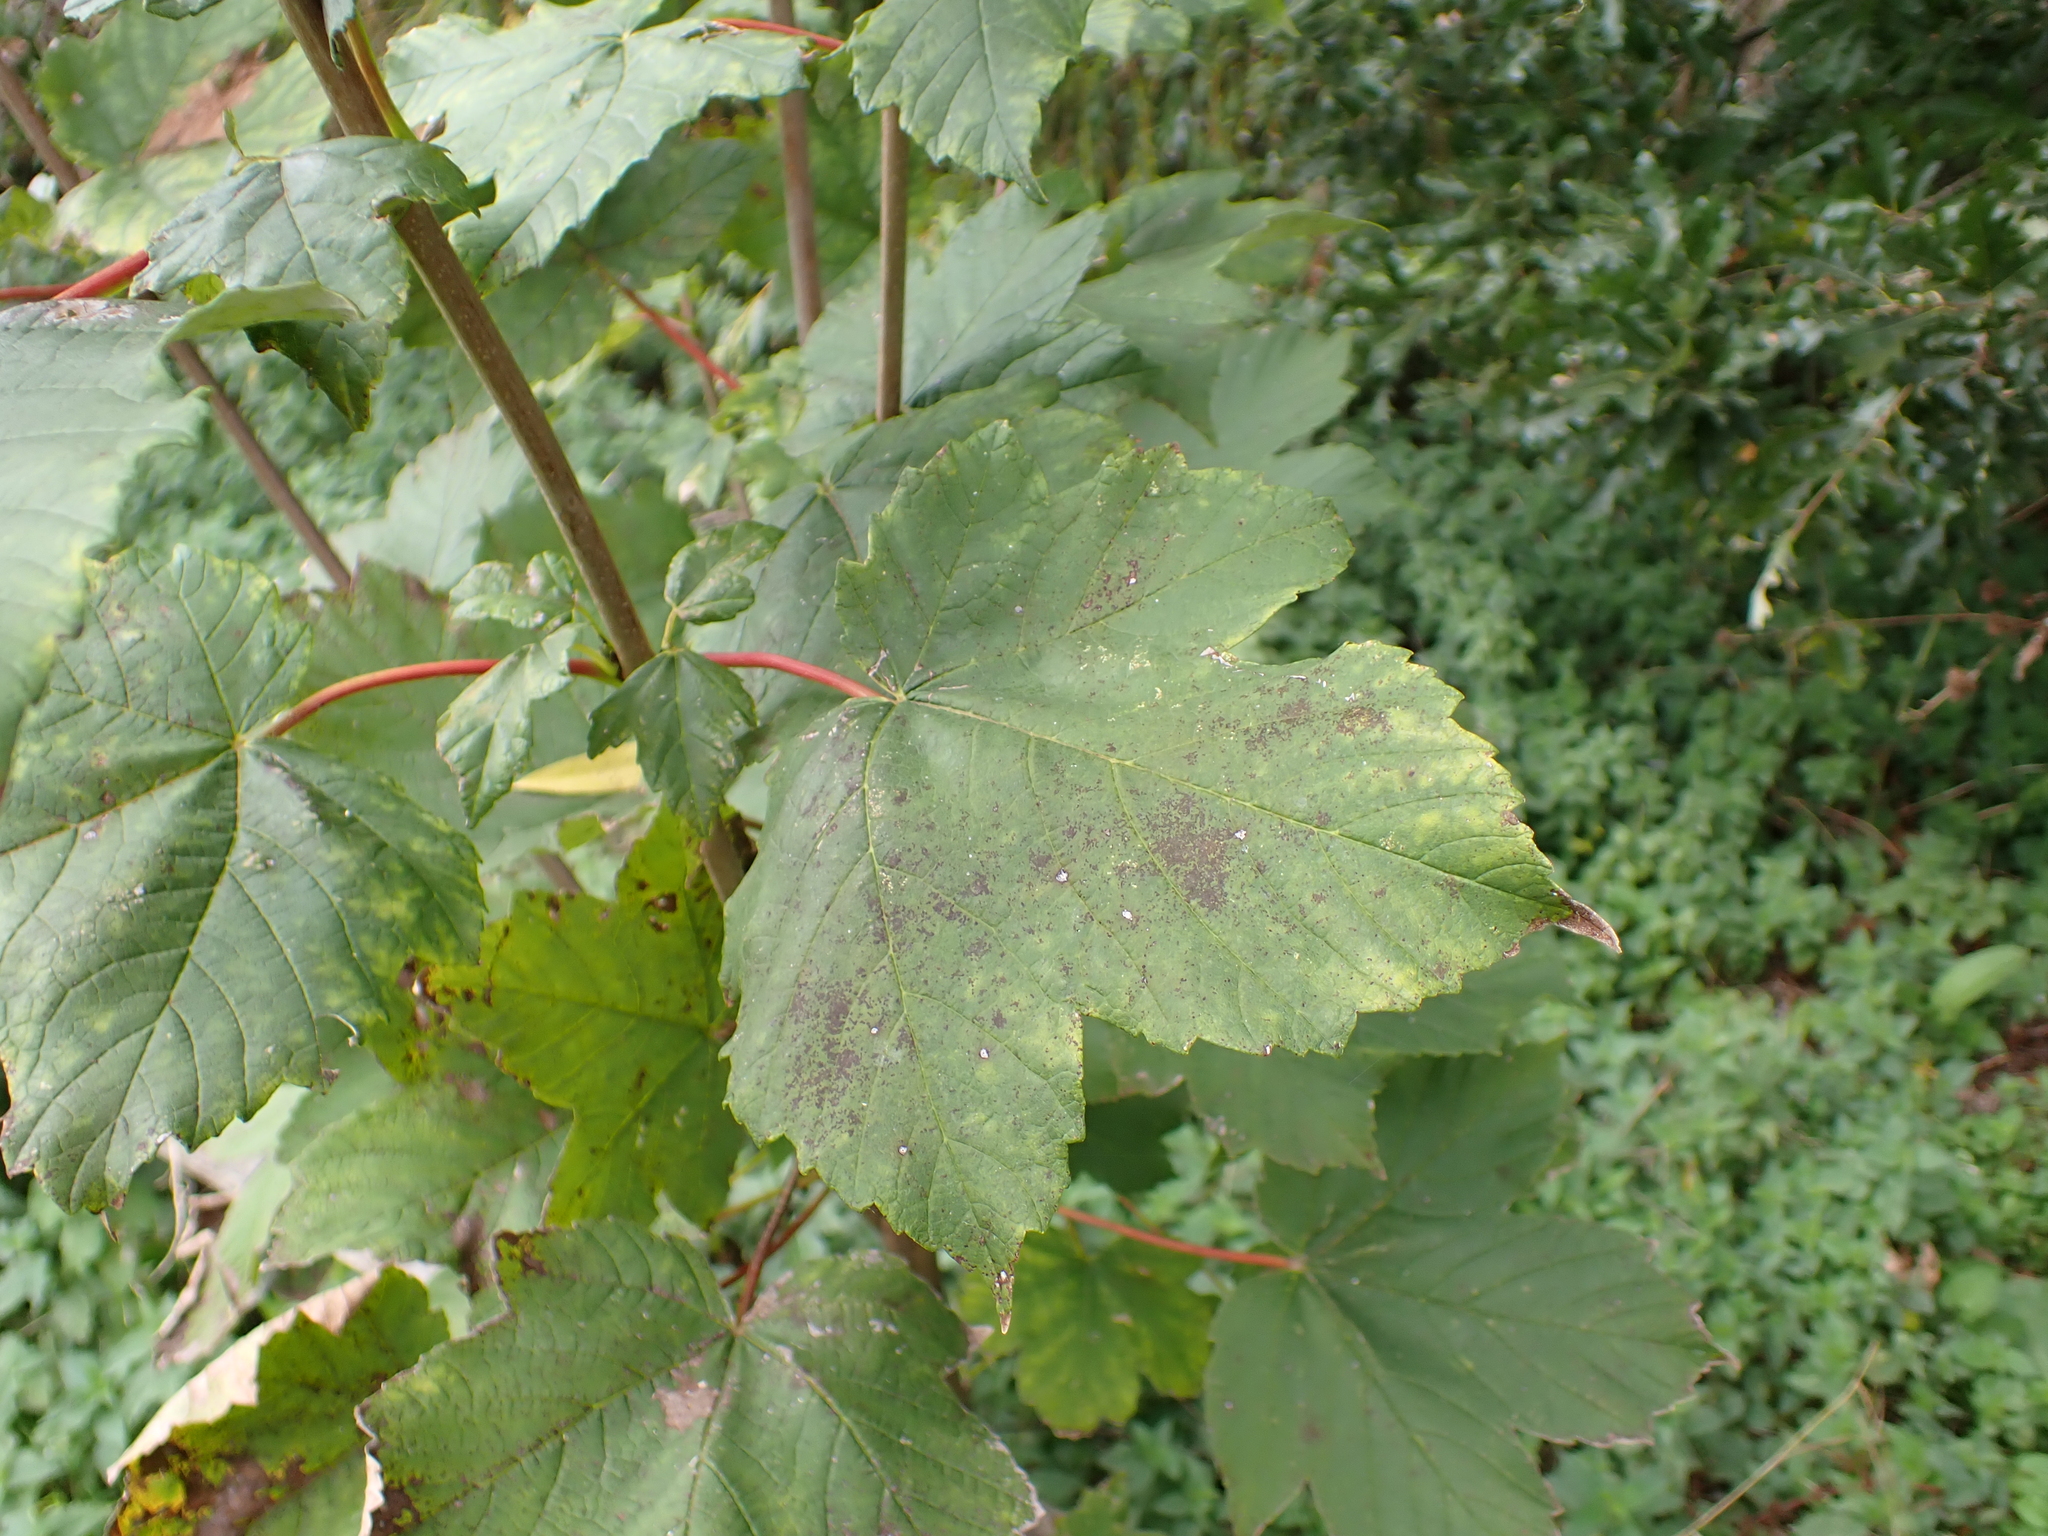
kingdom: Plantae
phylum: Tracheophyta
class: Magnoliopsida
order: Sapindales
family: Sapindaceae
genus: Acer
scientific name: Acer pseudoplatanus
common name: Sycamore
